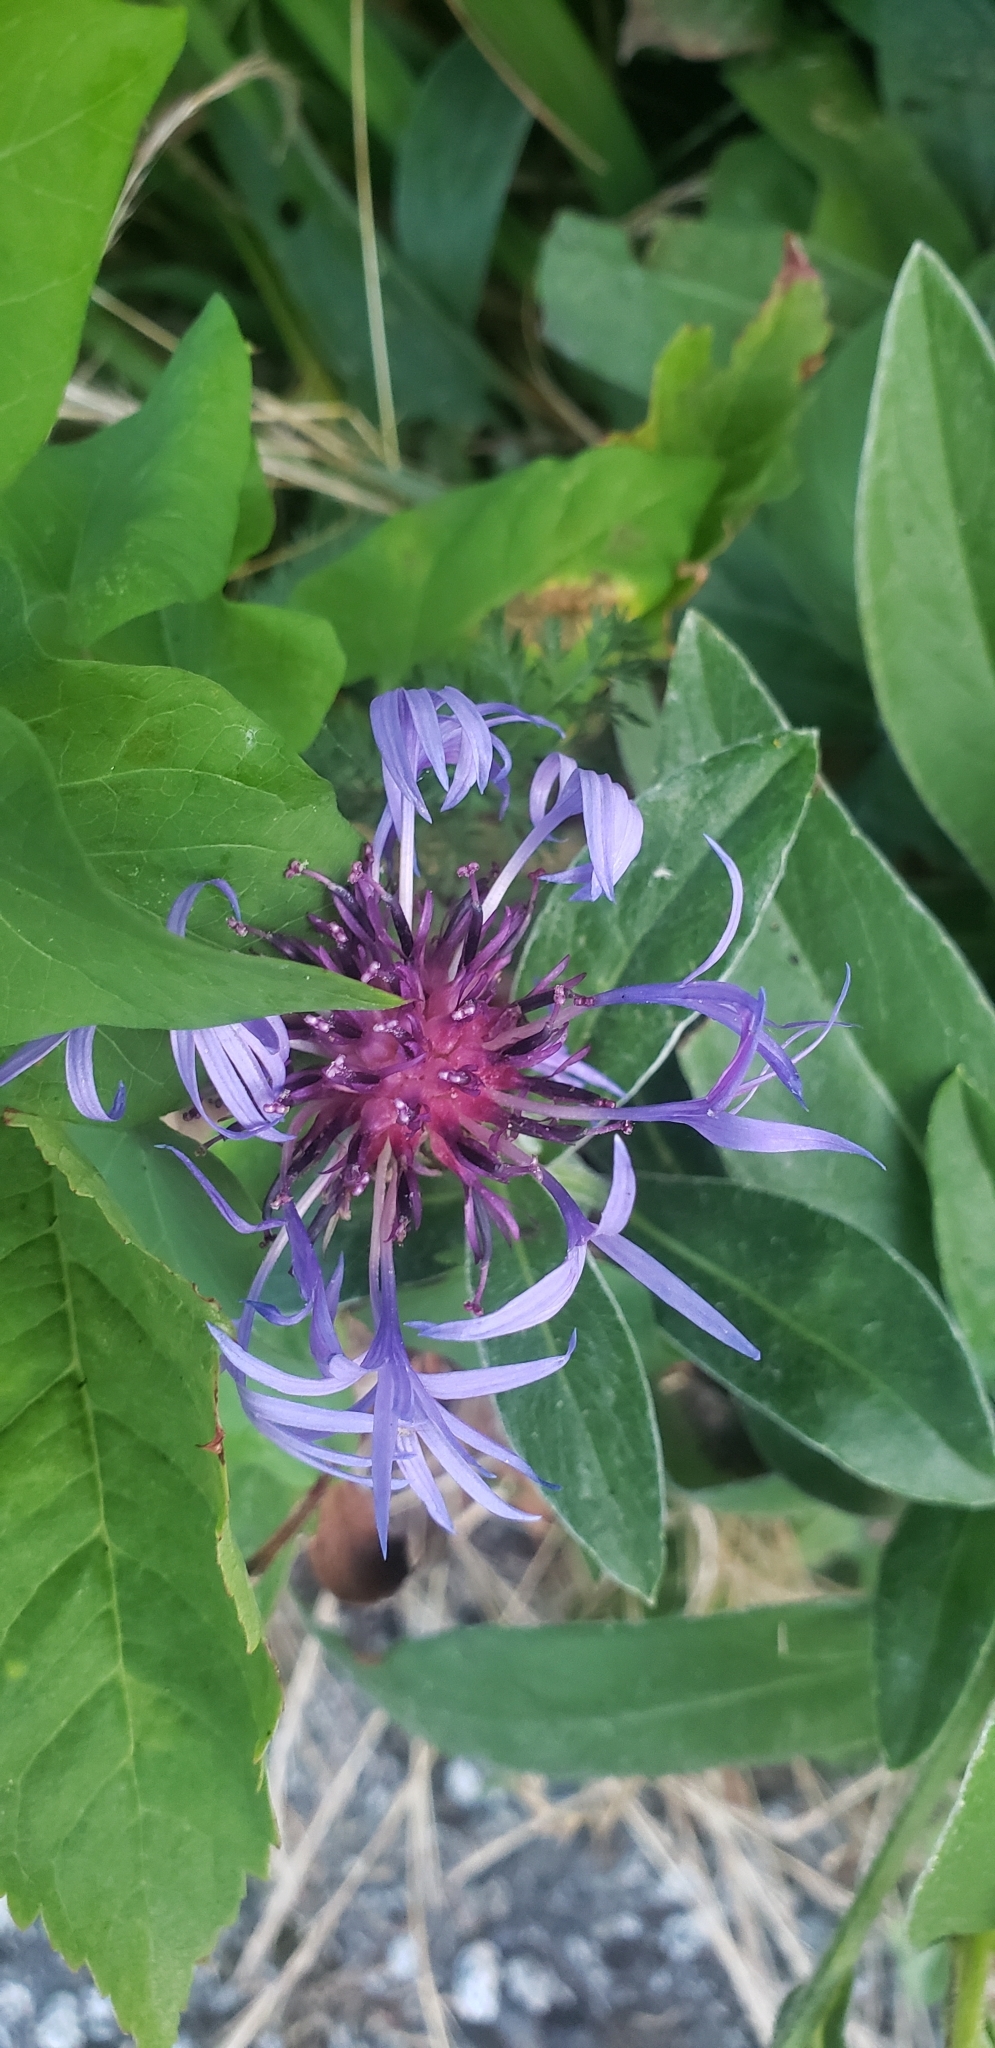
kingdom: Plantae
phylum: Tracheophyta
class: Magnoliopsida
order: Asterales
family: Asteraceae
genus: Centaurea
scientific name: Centaurea montana
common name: Perennial cornflower
